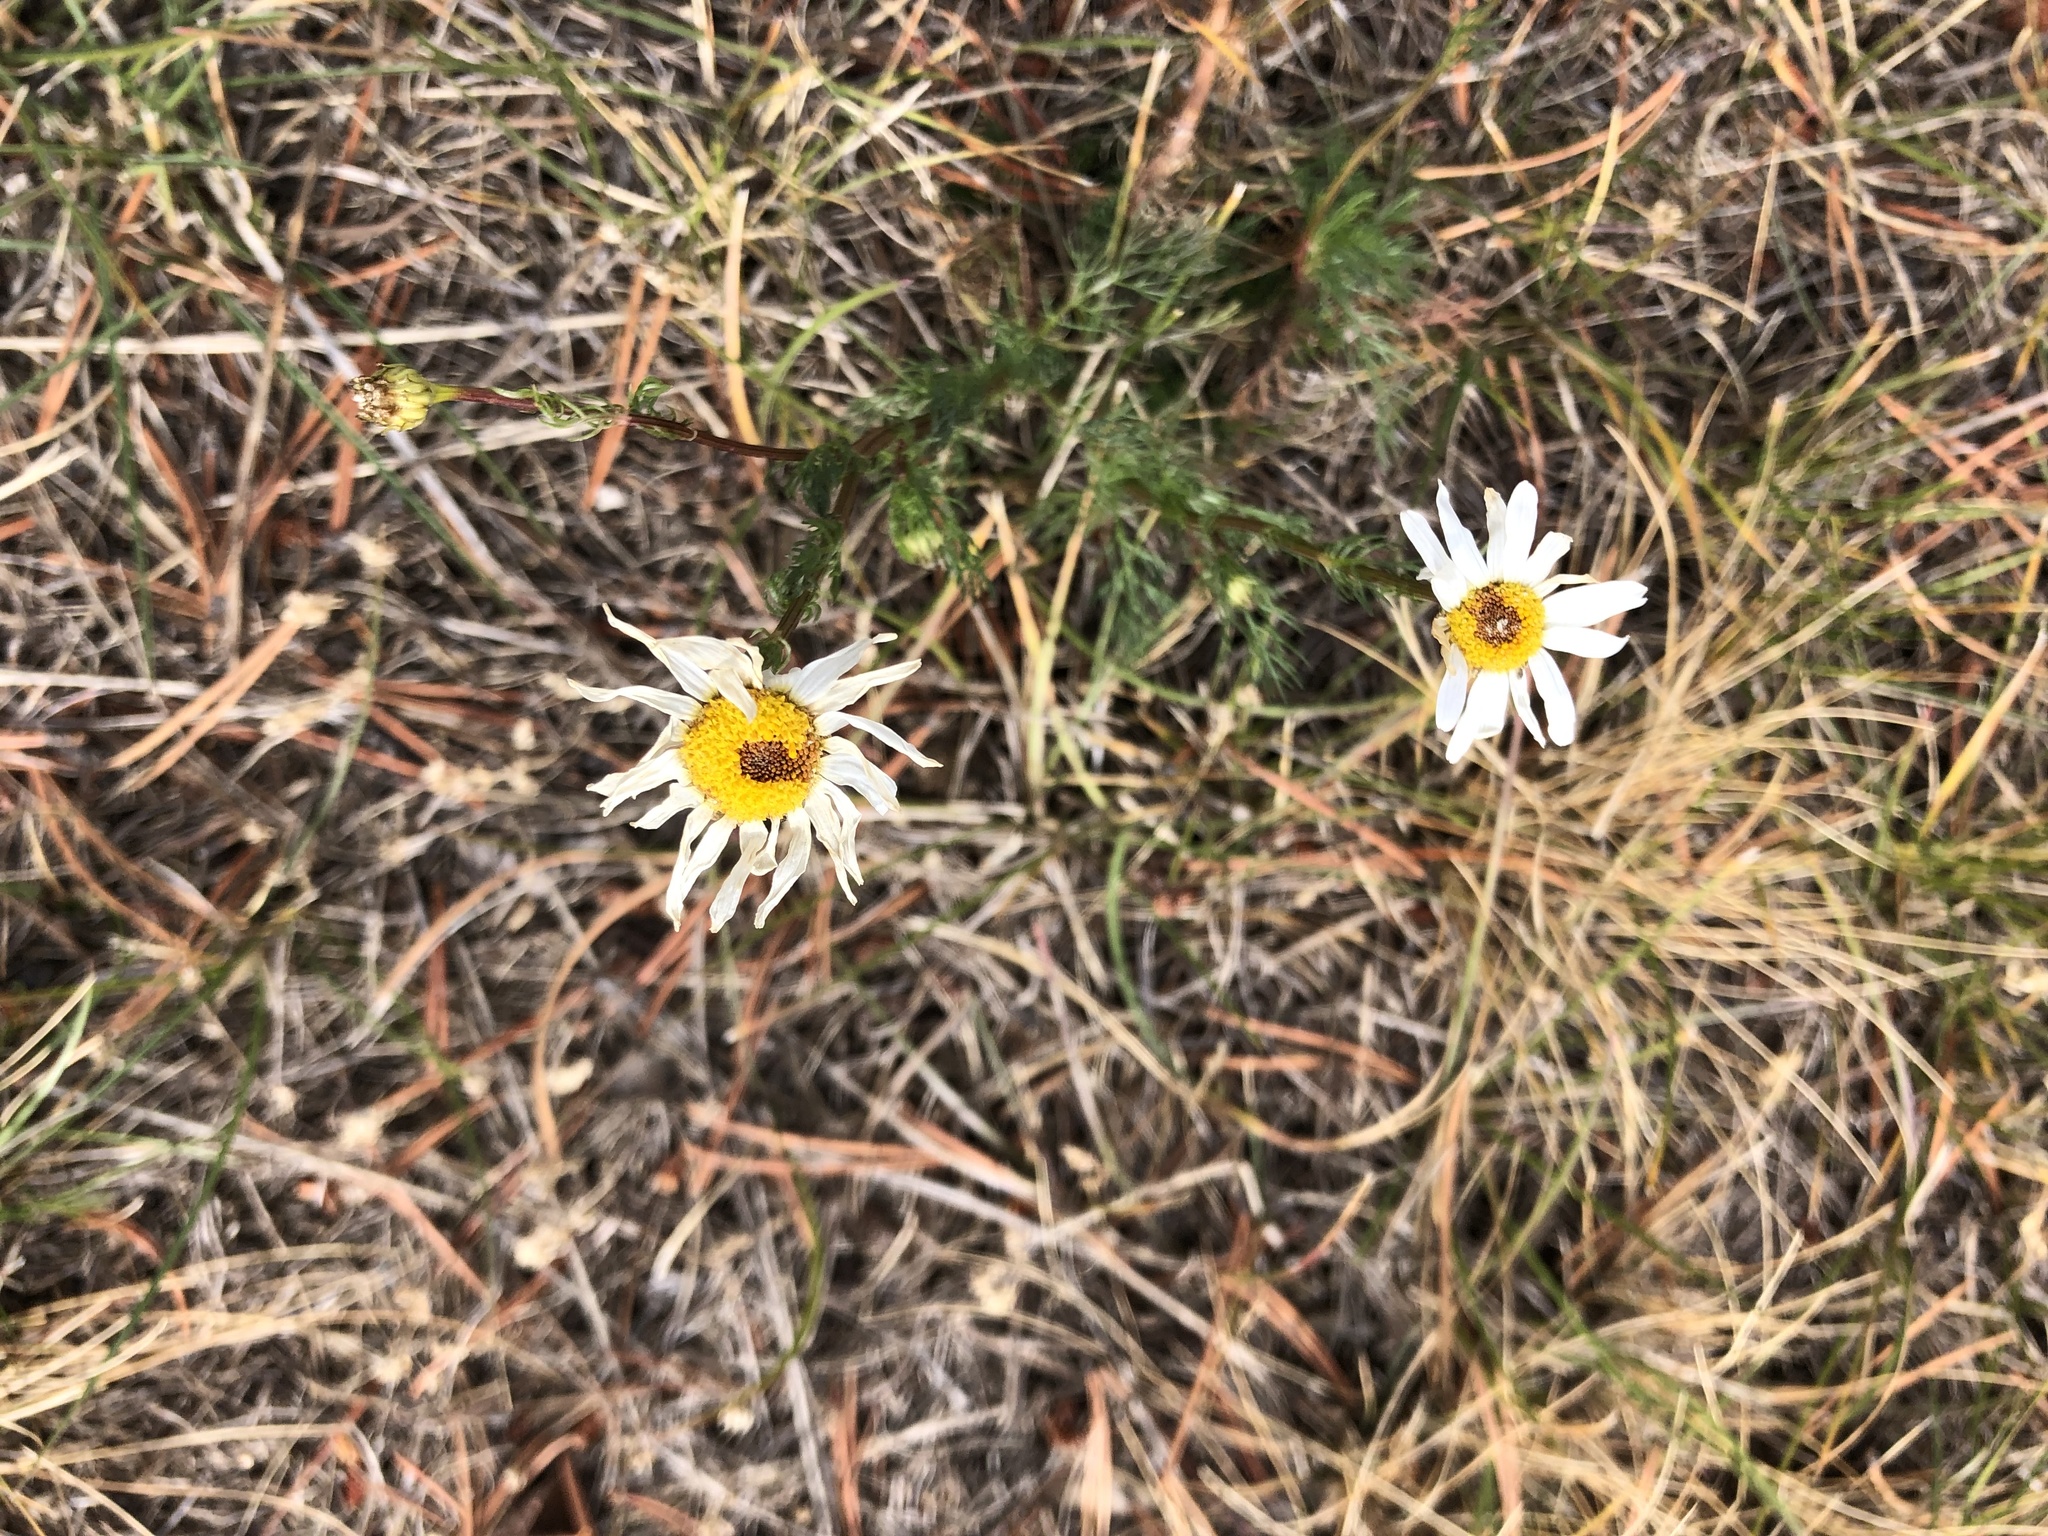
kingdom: Plantae
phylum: Tracheophyta
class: Magnoliopsida
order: Asterales
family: Asteraceae
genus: Tripleurospermum
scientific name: Tripleurospermum inodorum
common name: Scentless mayweed
